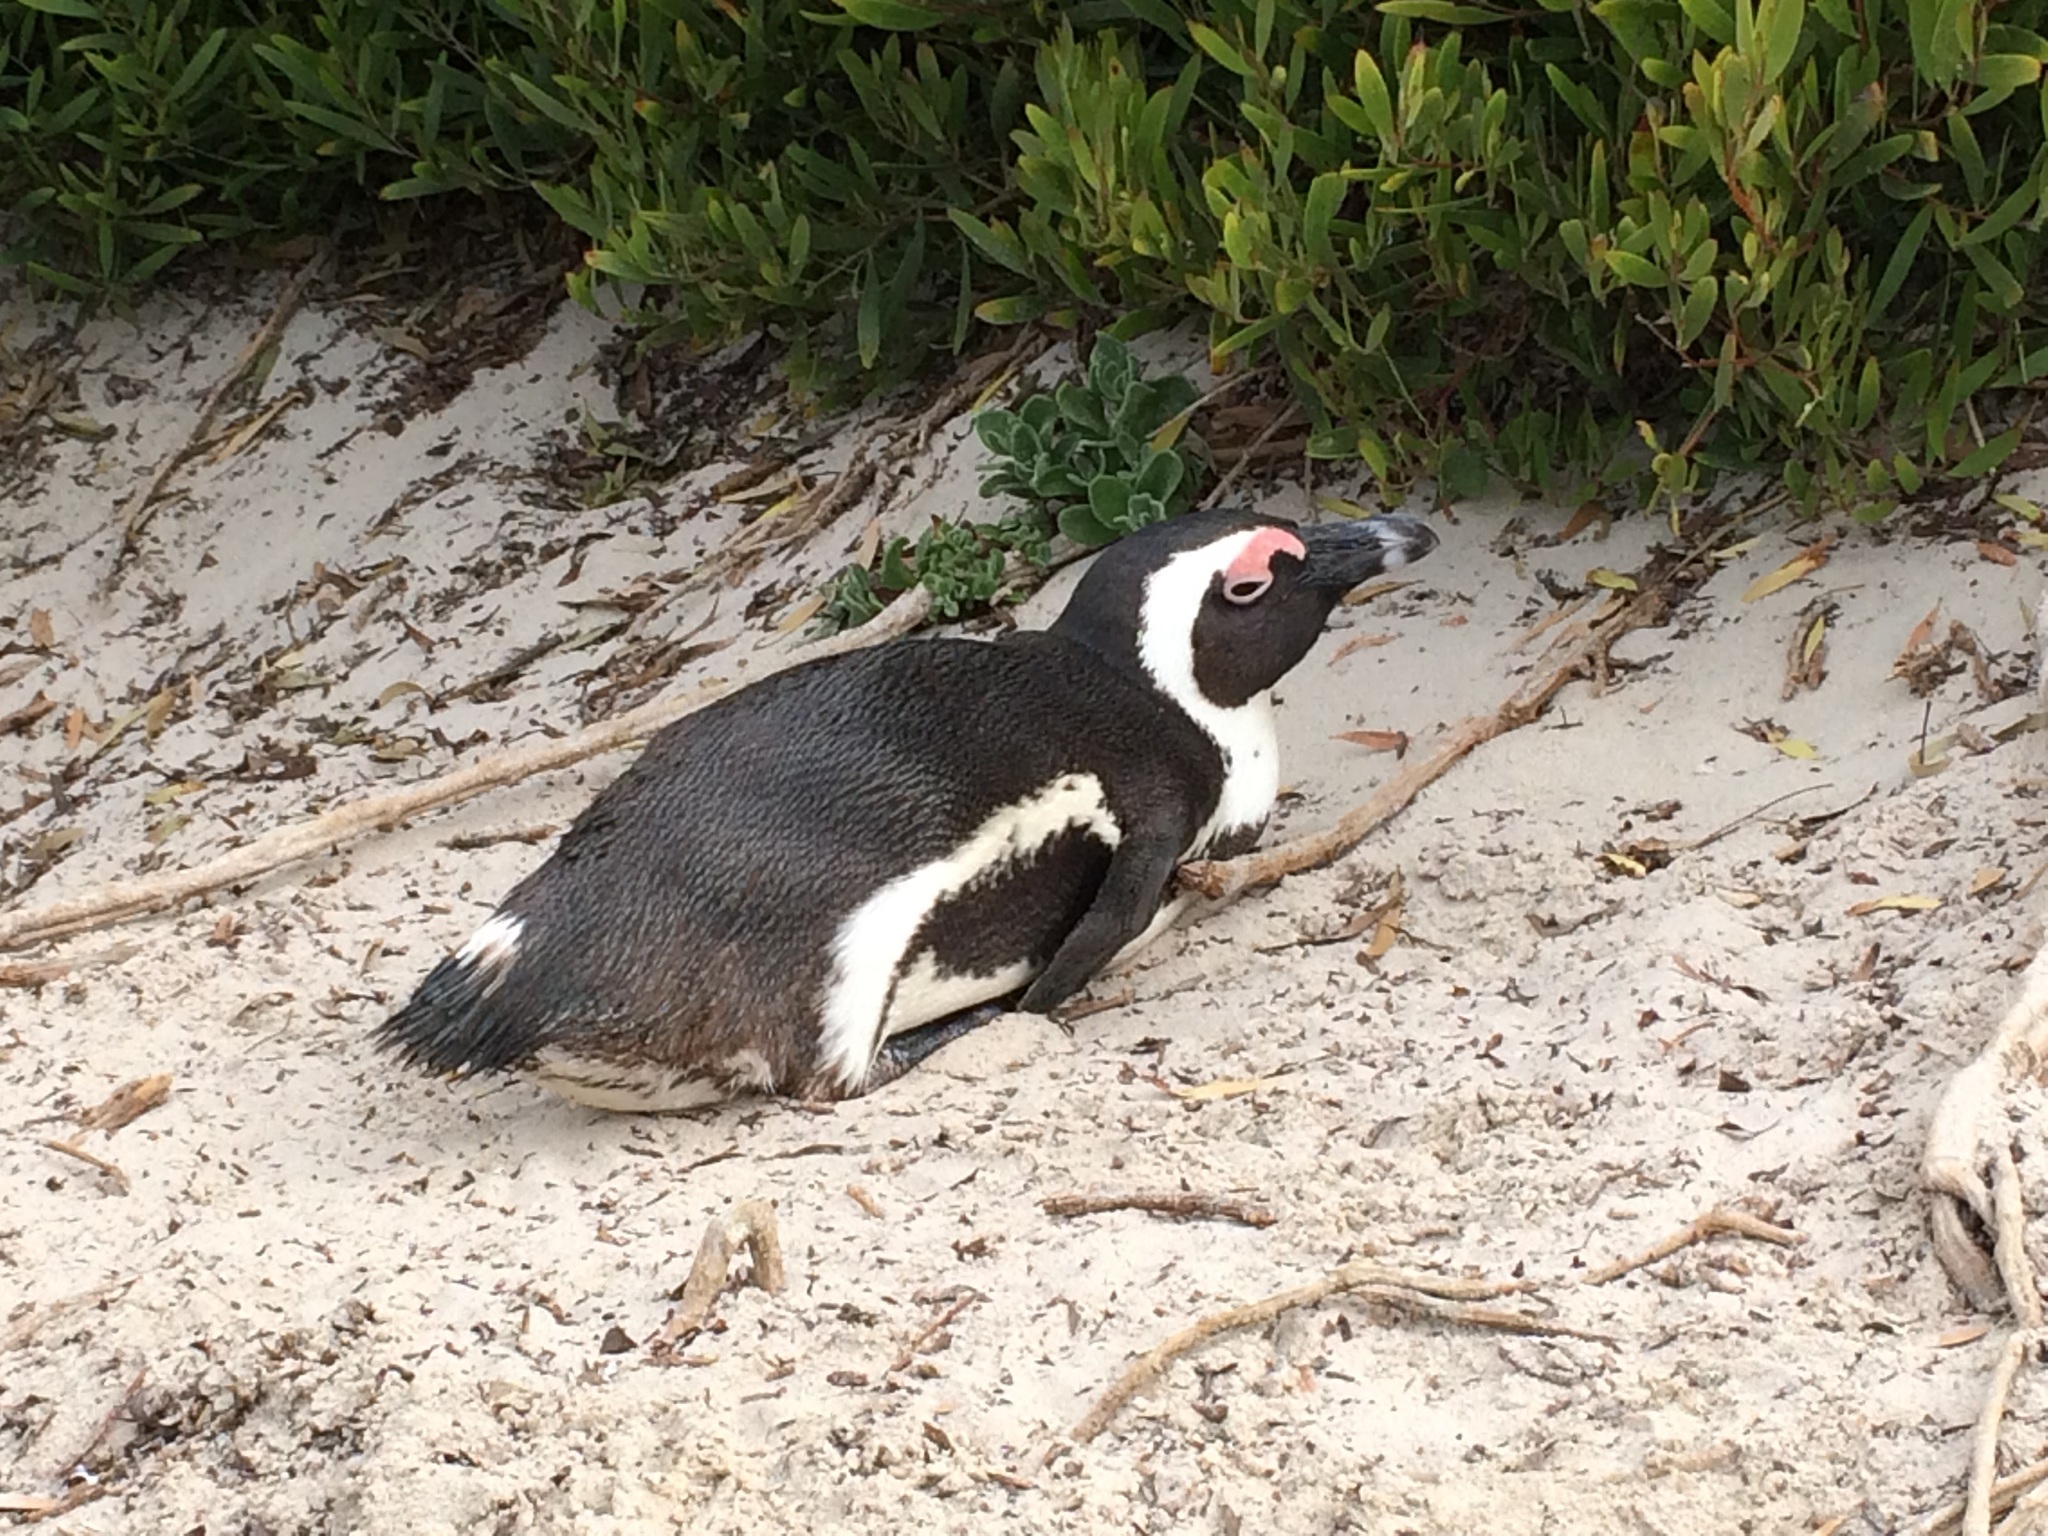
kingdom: Animalia
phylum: Chordata
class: Aves
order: Sphenisciformes
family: Spheniscidae
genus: Spheniscus
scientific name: Spheniscus demersus
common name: African penguin
